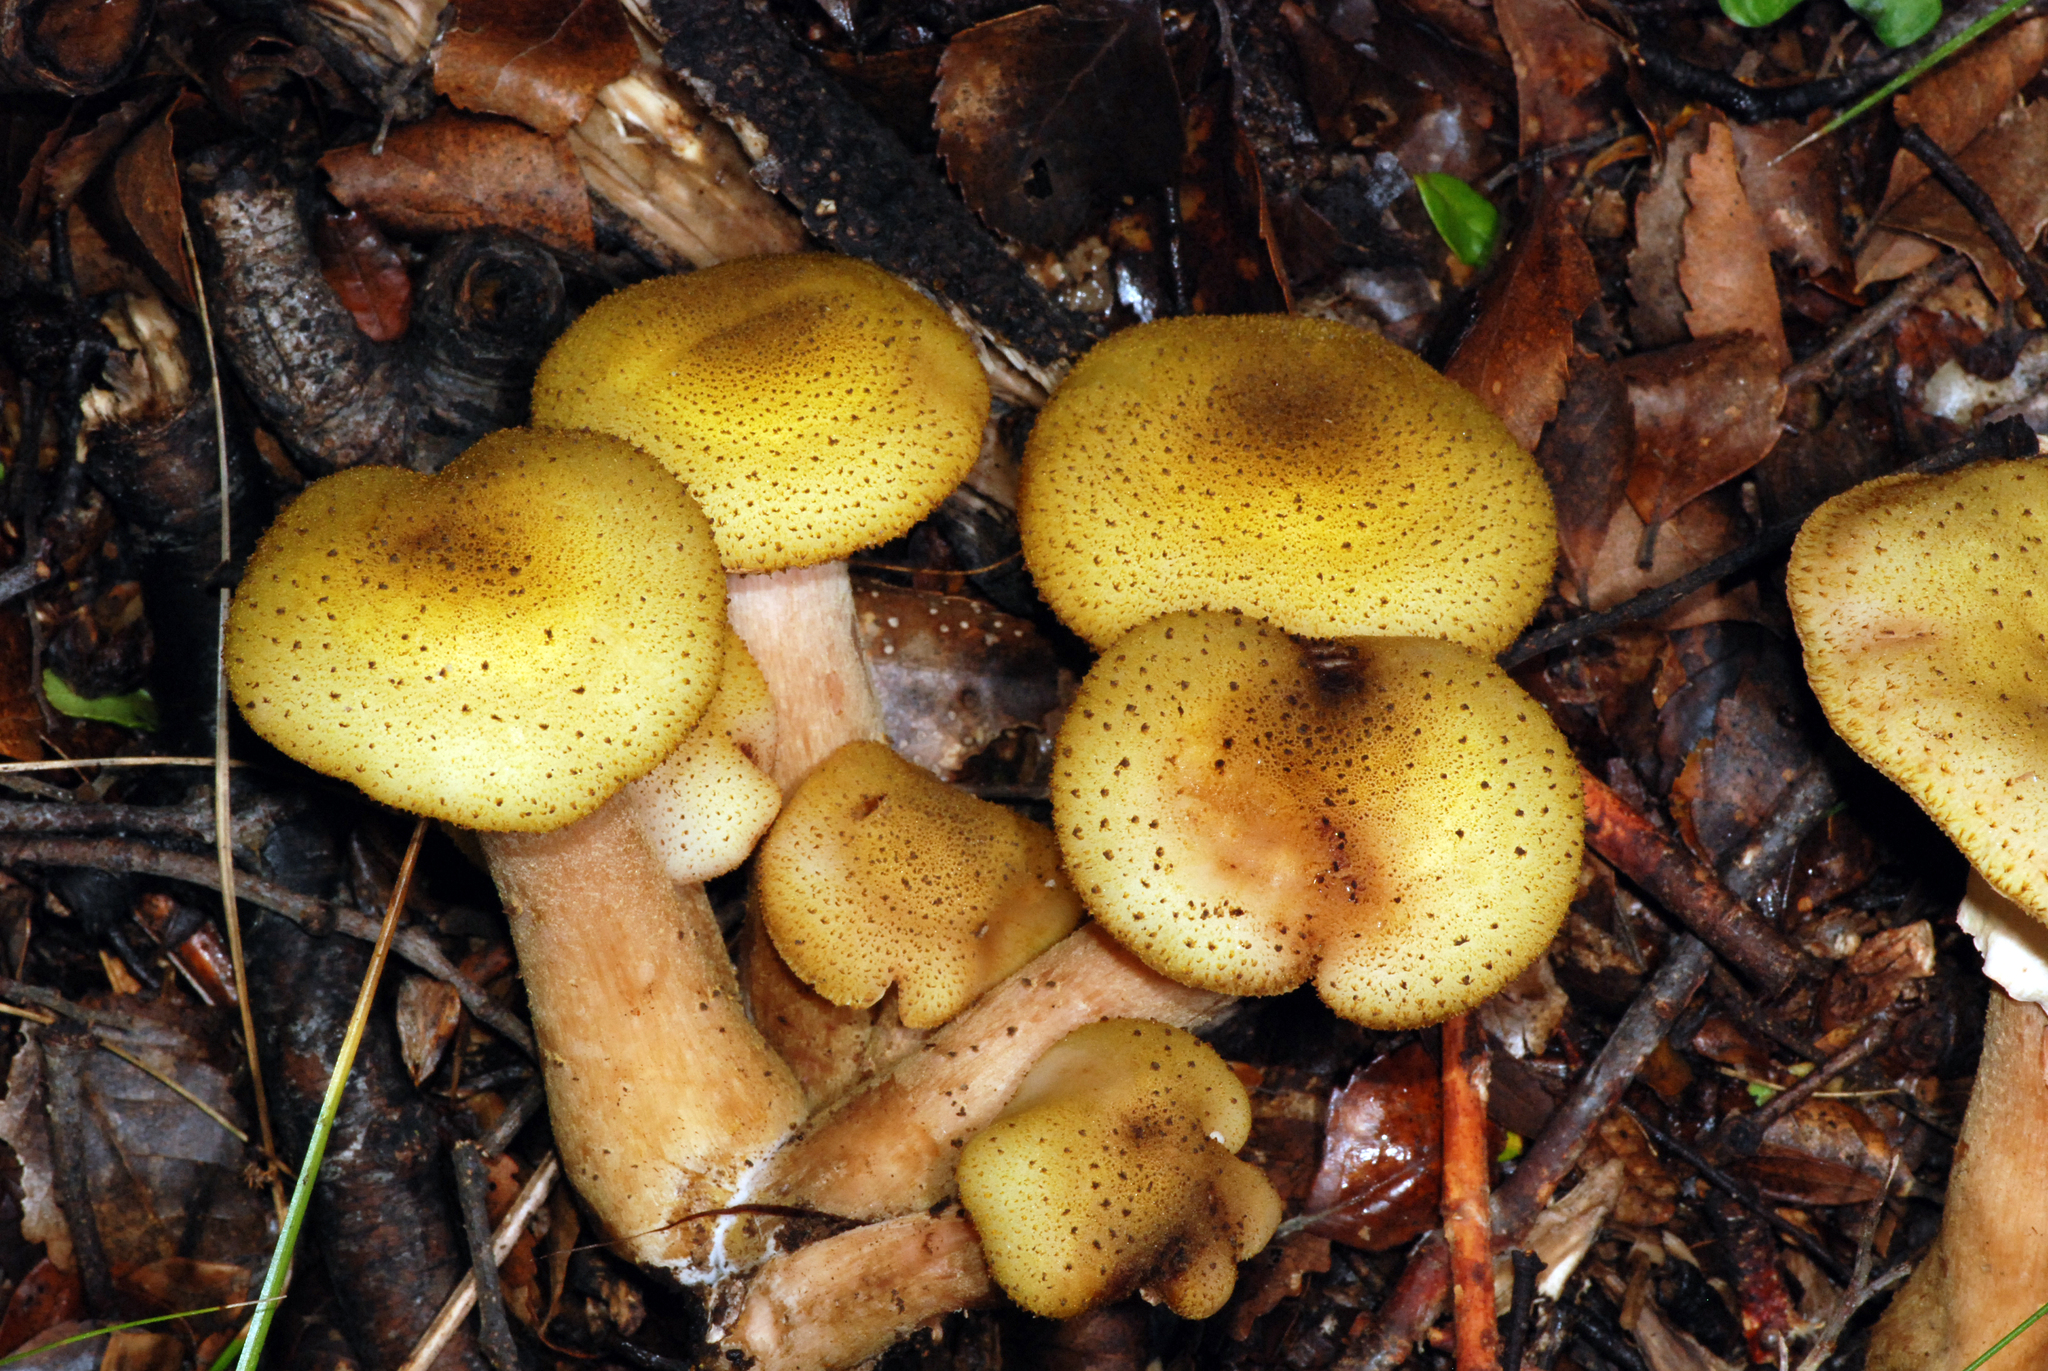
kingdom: Fungi
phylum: Basidiomycota
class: Agaricomycetes
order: Agaricales
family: Physalacriaceae
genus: Armillaria
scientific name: Armillaria limonea
